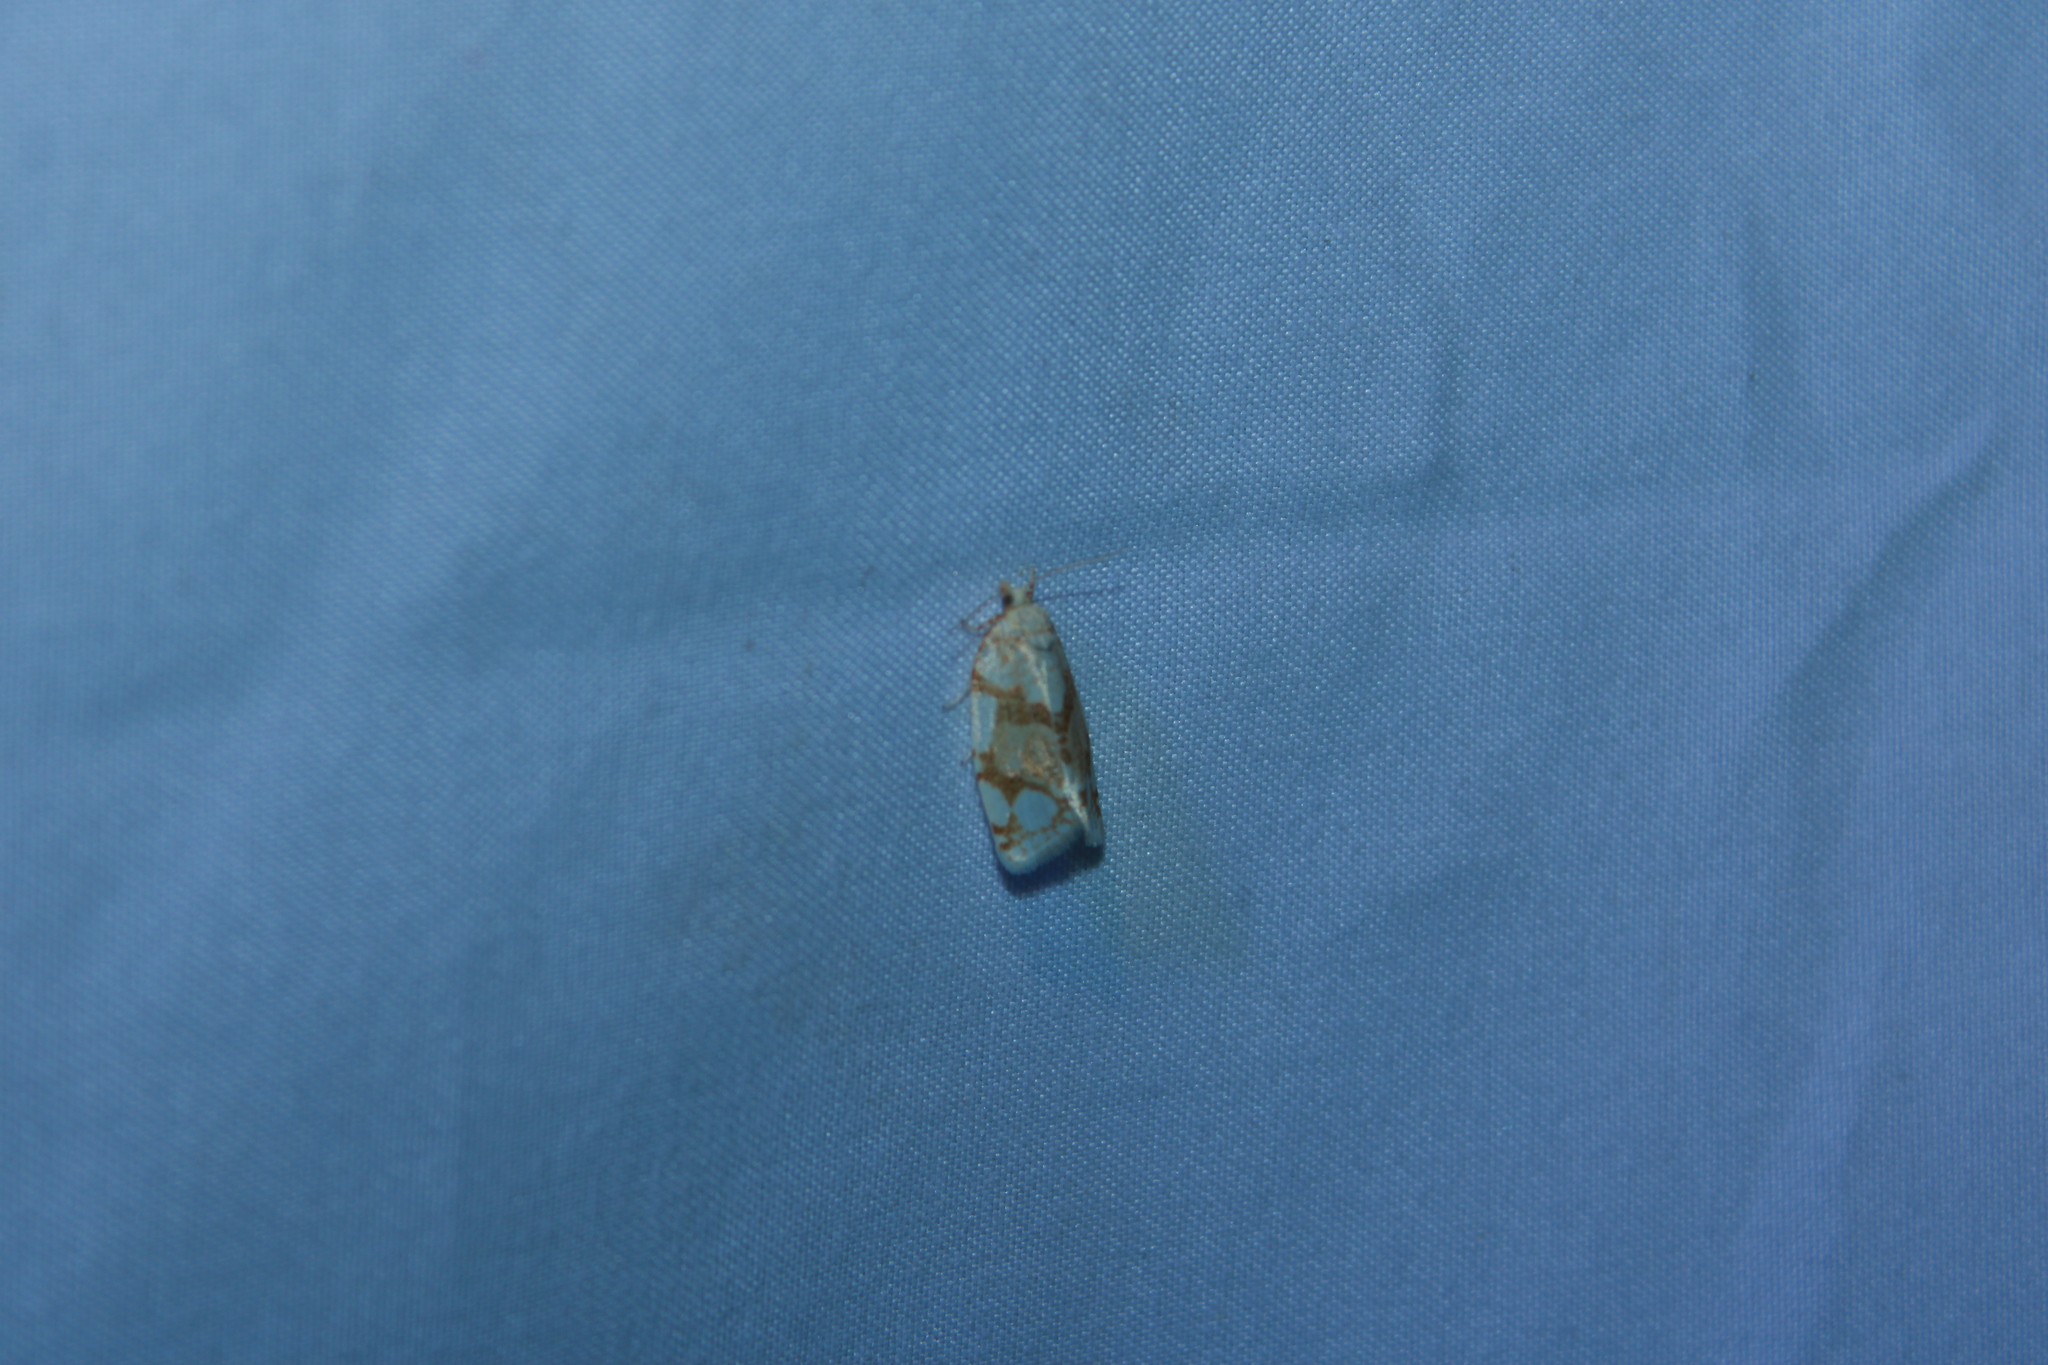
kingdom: Animalia
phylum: Arthropoda
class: Insecta
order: Lepidoptera
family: Tortricidae
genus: Argyrotaenia
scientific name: Argyrotaenia alisellana
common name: White-spotted leafroller moth
